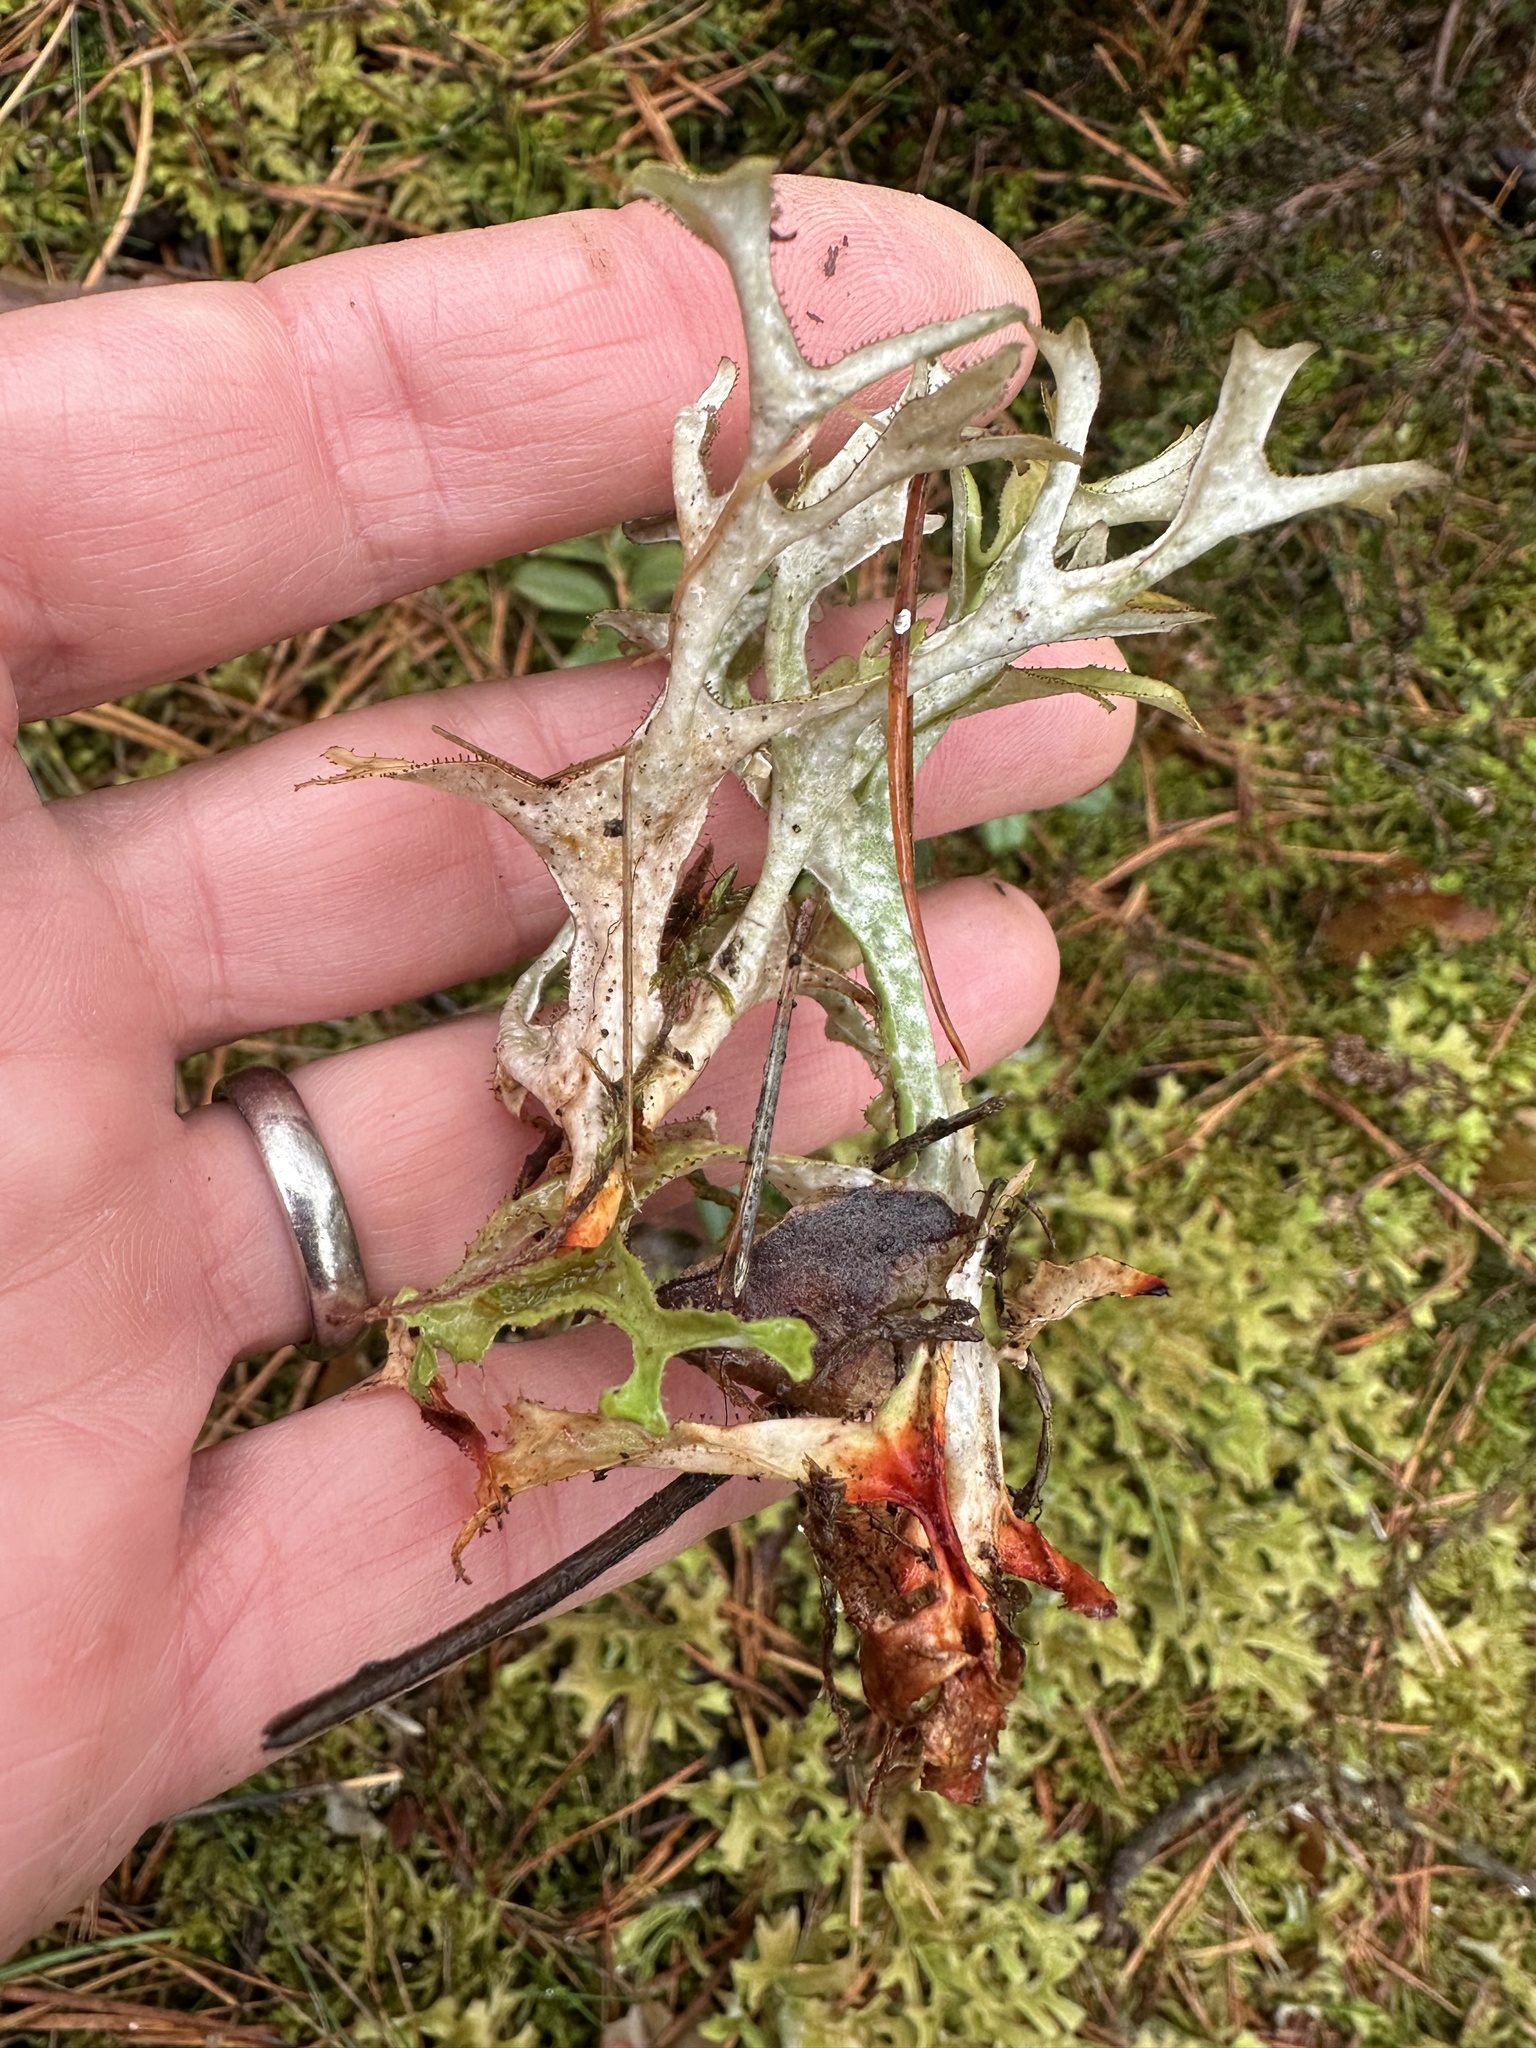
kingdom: Fungi
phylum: Ascomycota
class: Lecanoromycetes
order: Lecanorales
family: Parmeliaceae
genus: Cetraria
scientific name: Cetraria islandica
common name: Iceland lichen
